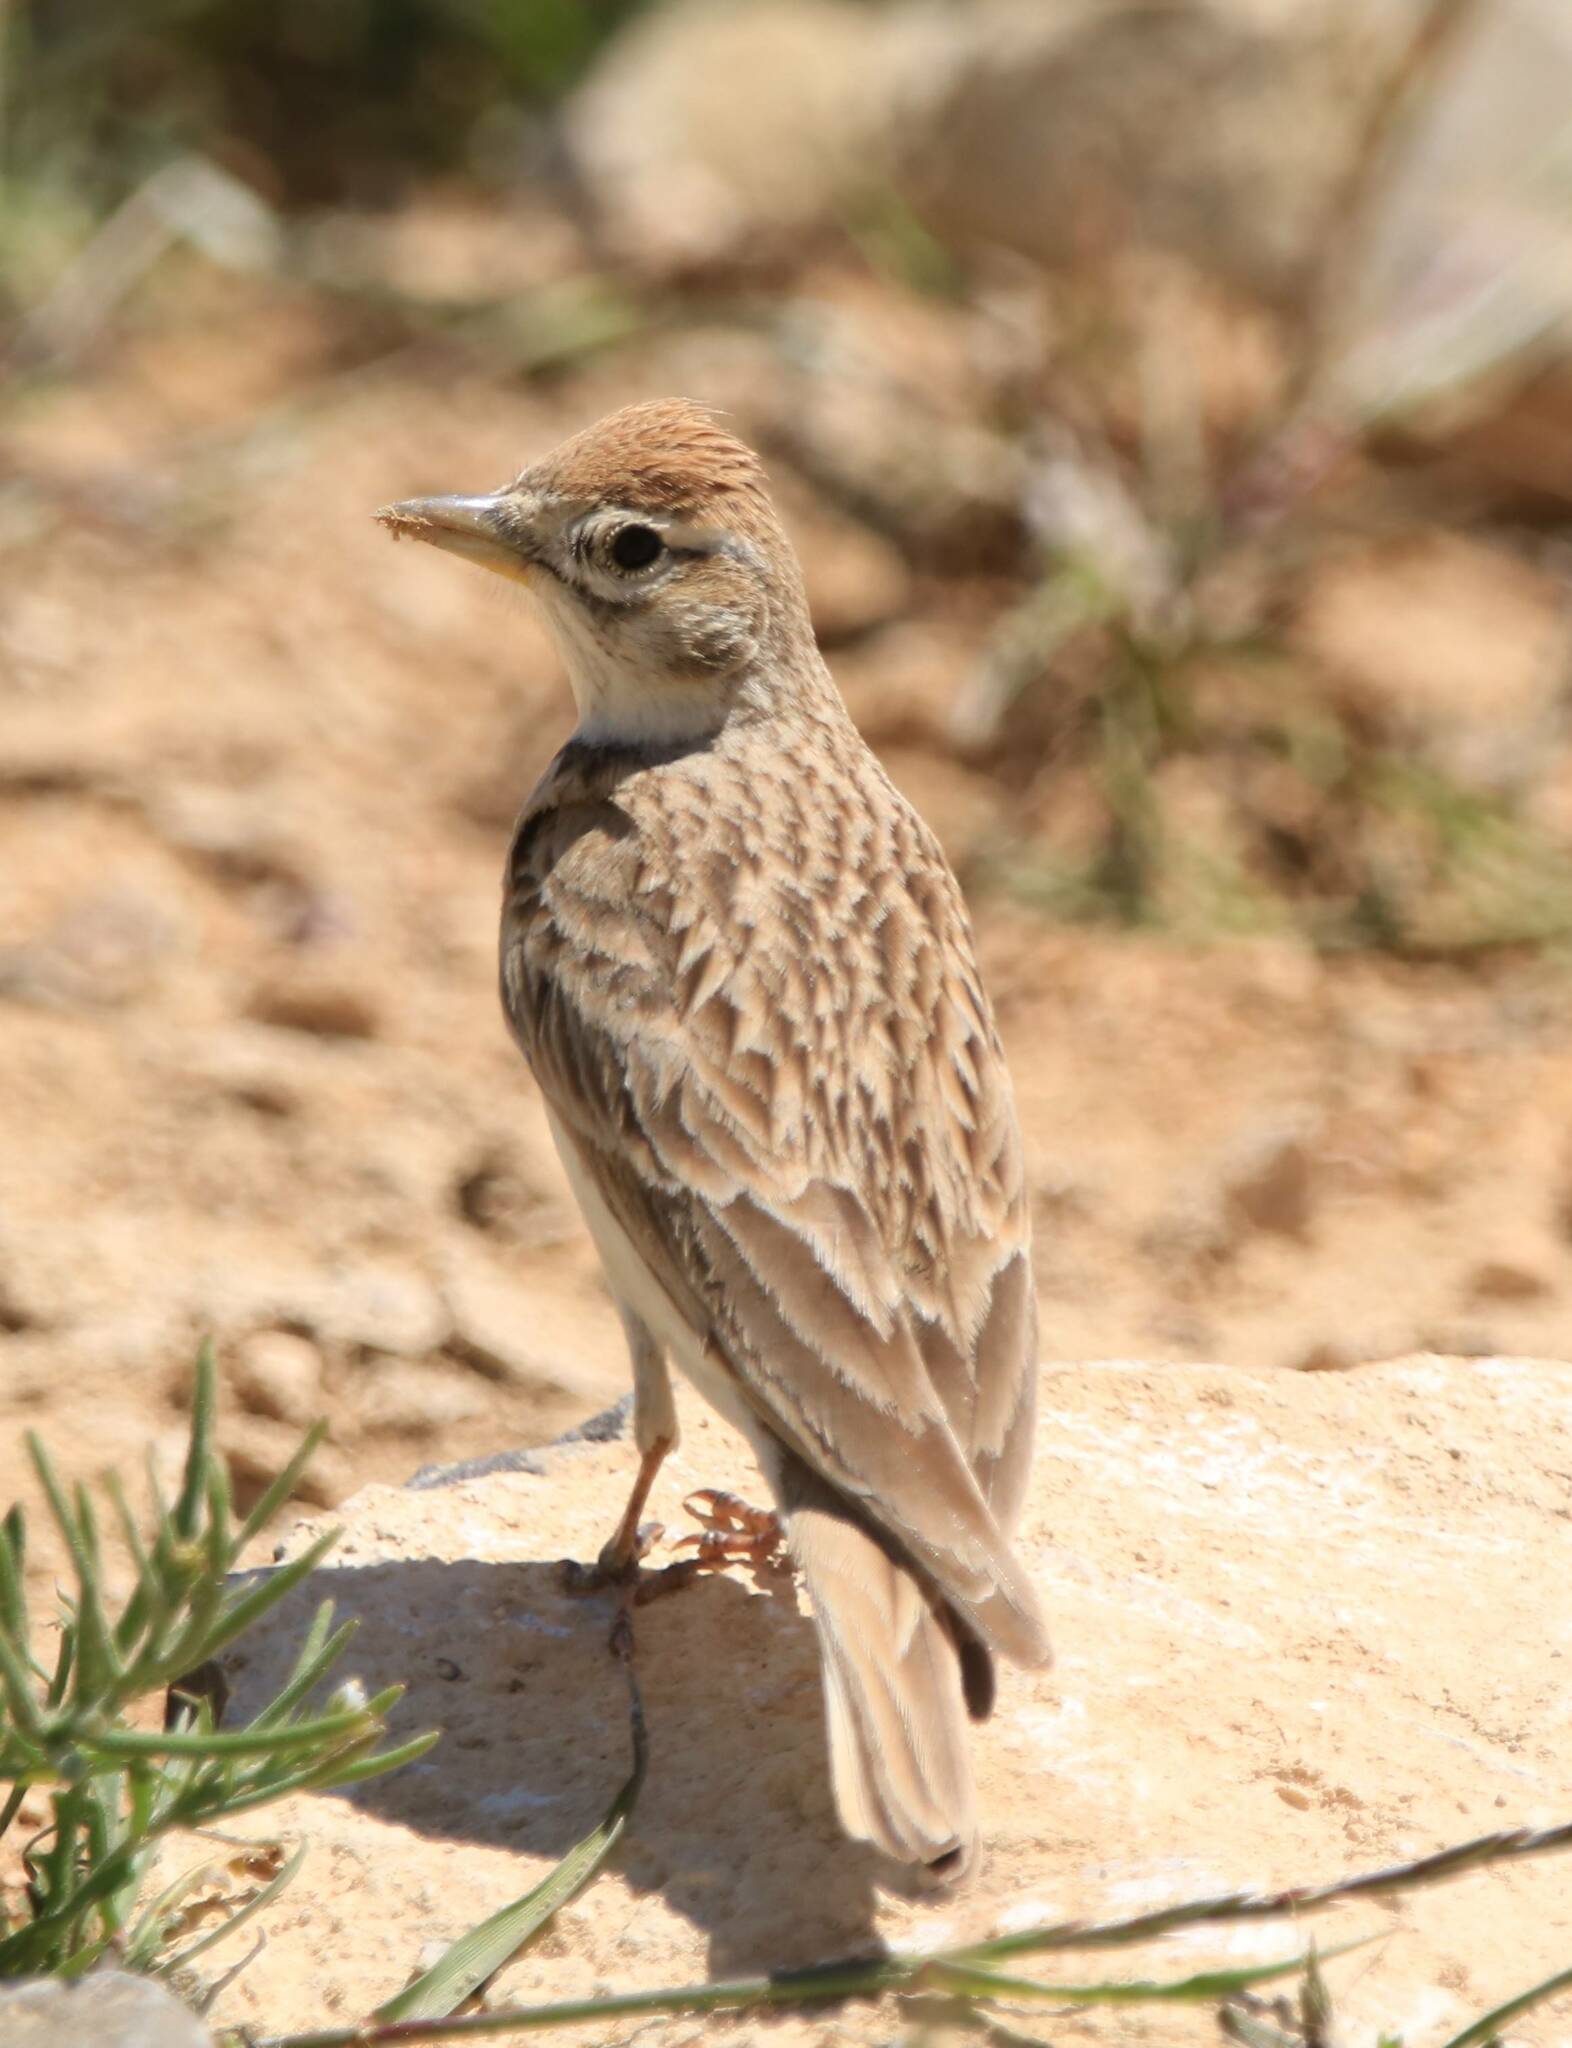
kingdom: Animalia
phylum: Chordata
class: Aves
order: Passeriformes
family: Alaudidae
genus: Calandrella
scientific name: Calandrella brachydactyla
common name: Greater short-toed lark
